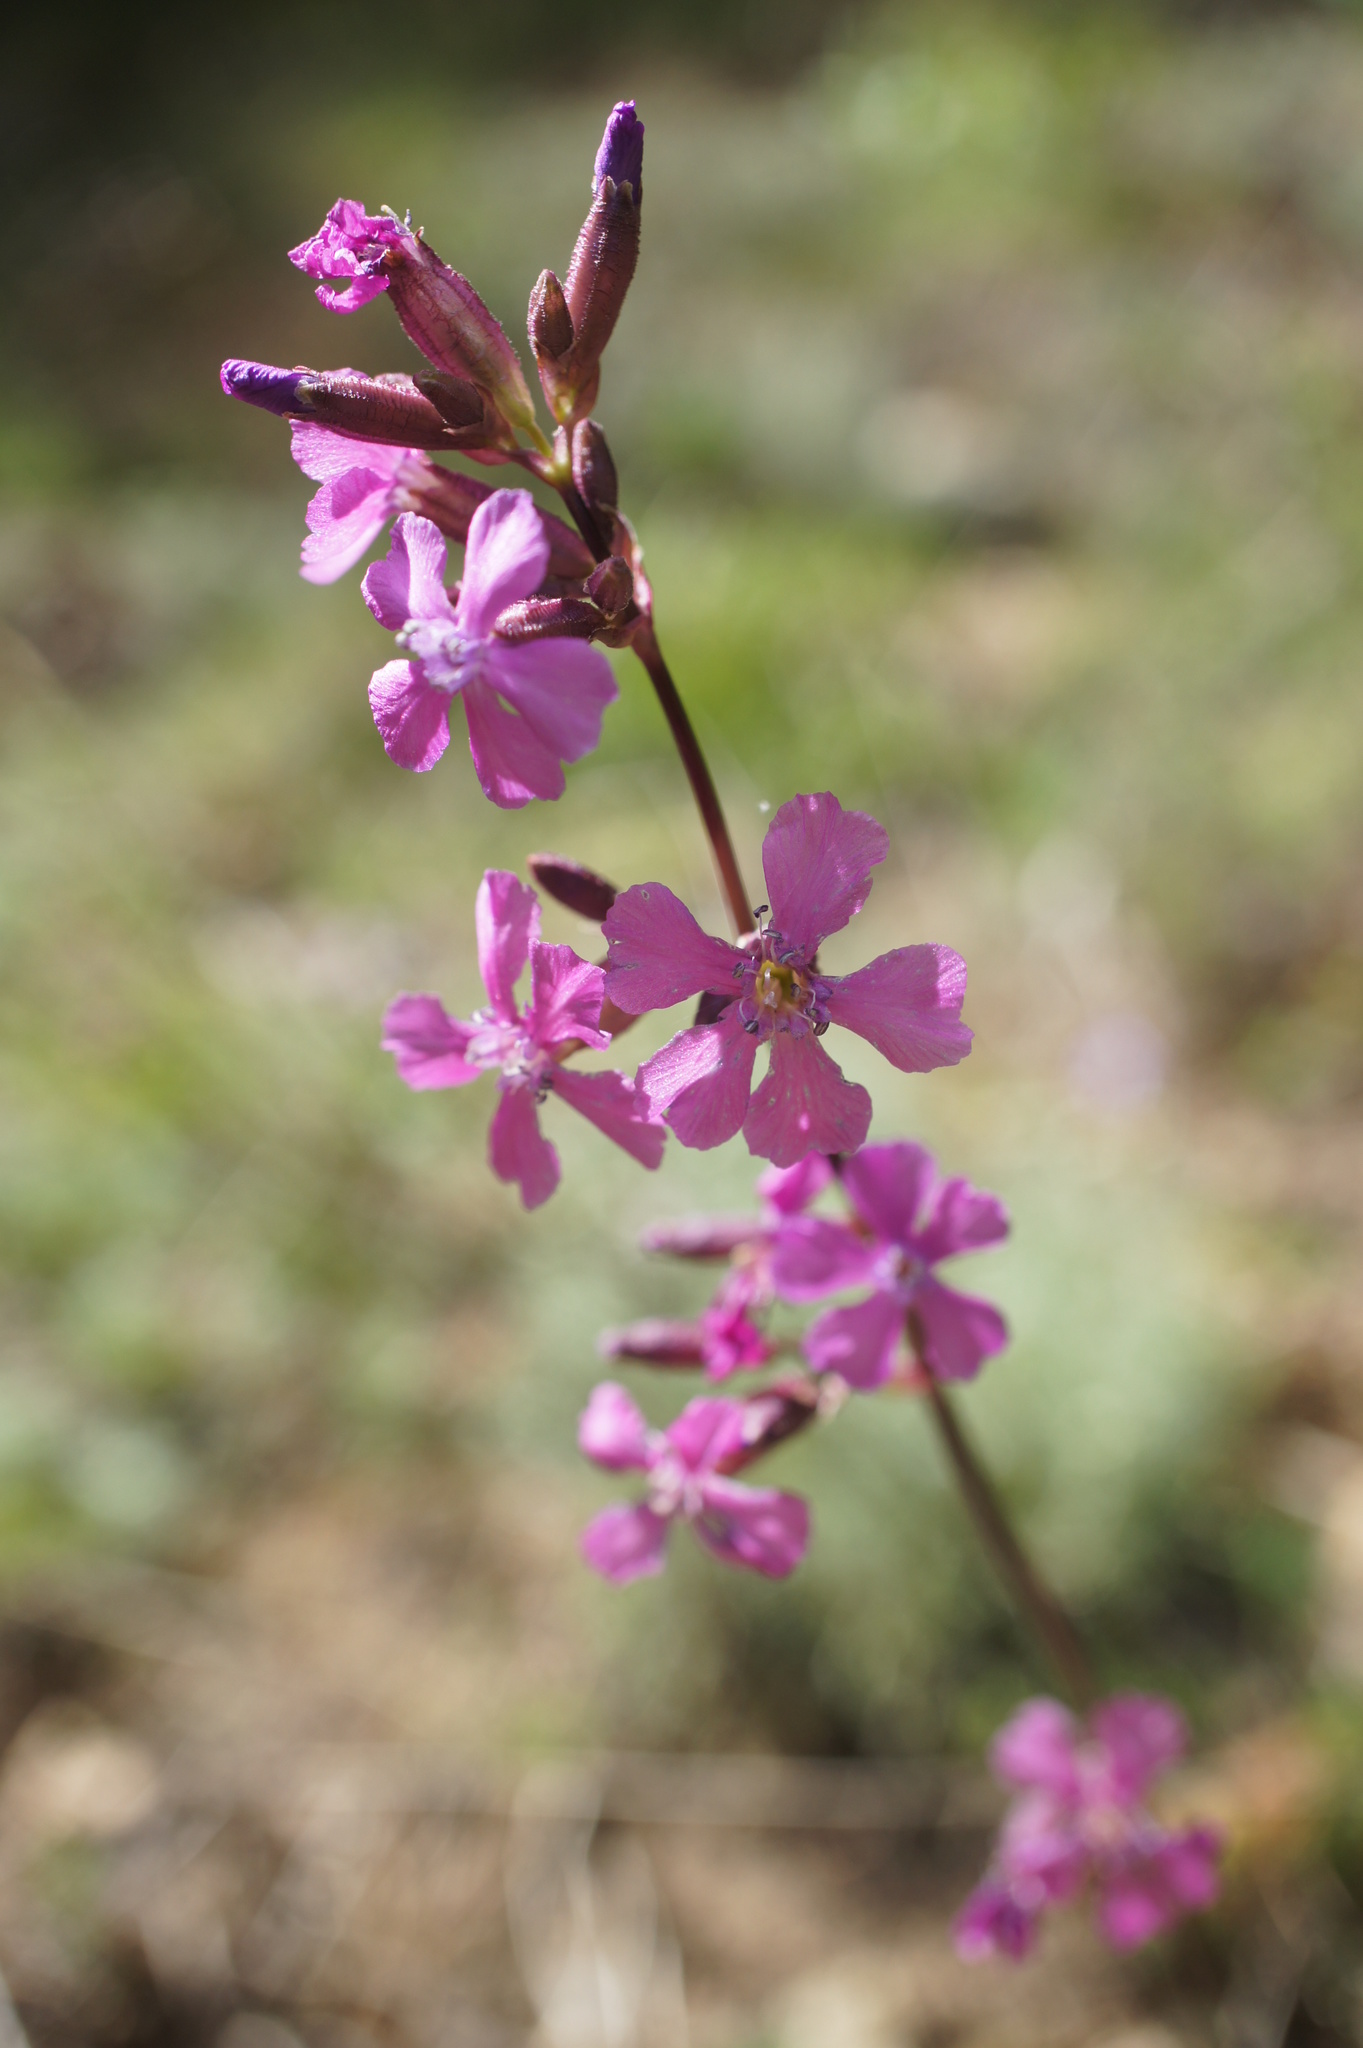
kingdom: Plantae
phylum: Tracheophyta
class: Magnoliopsida
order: Caryophyllales
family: Caryophyllaceae
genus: Viscaria
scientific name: Viscaria vulgaris
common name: Clammy campion
